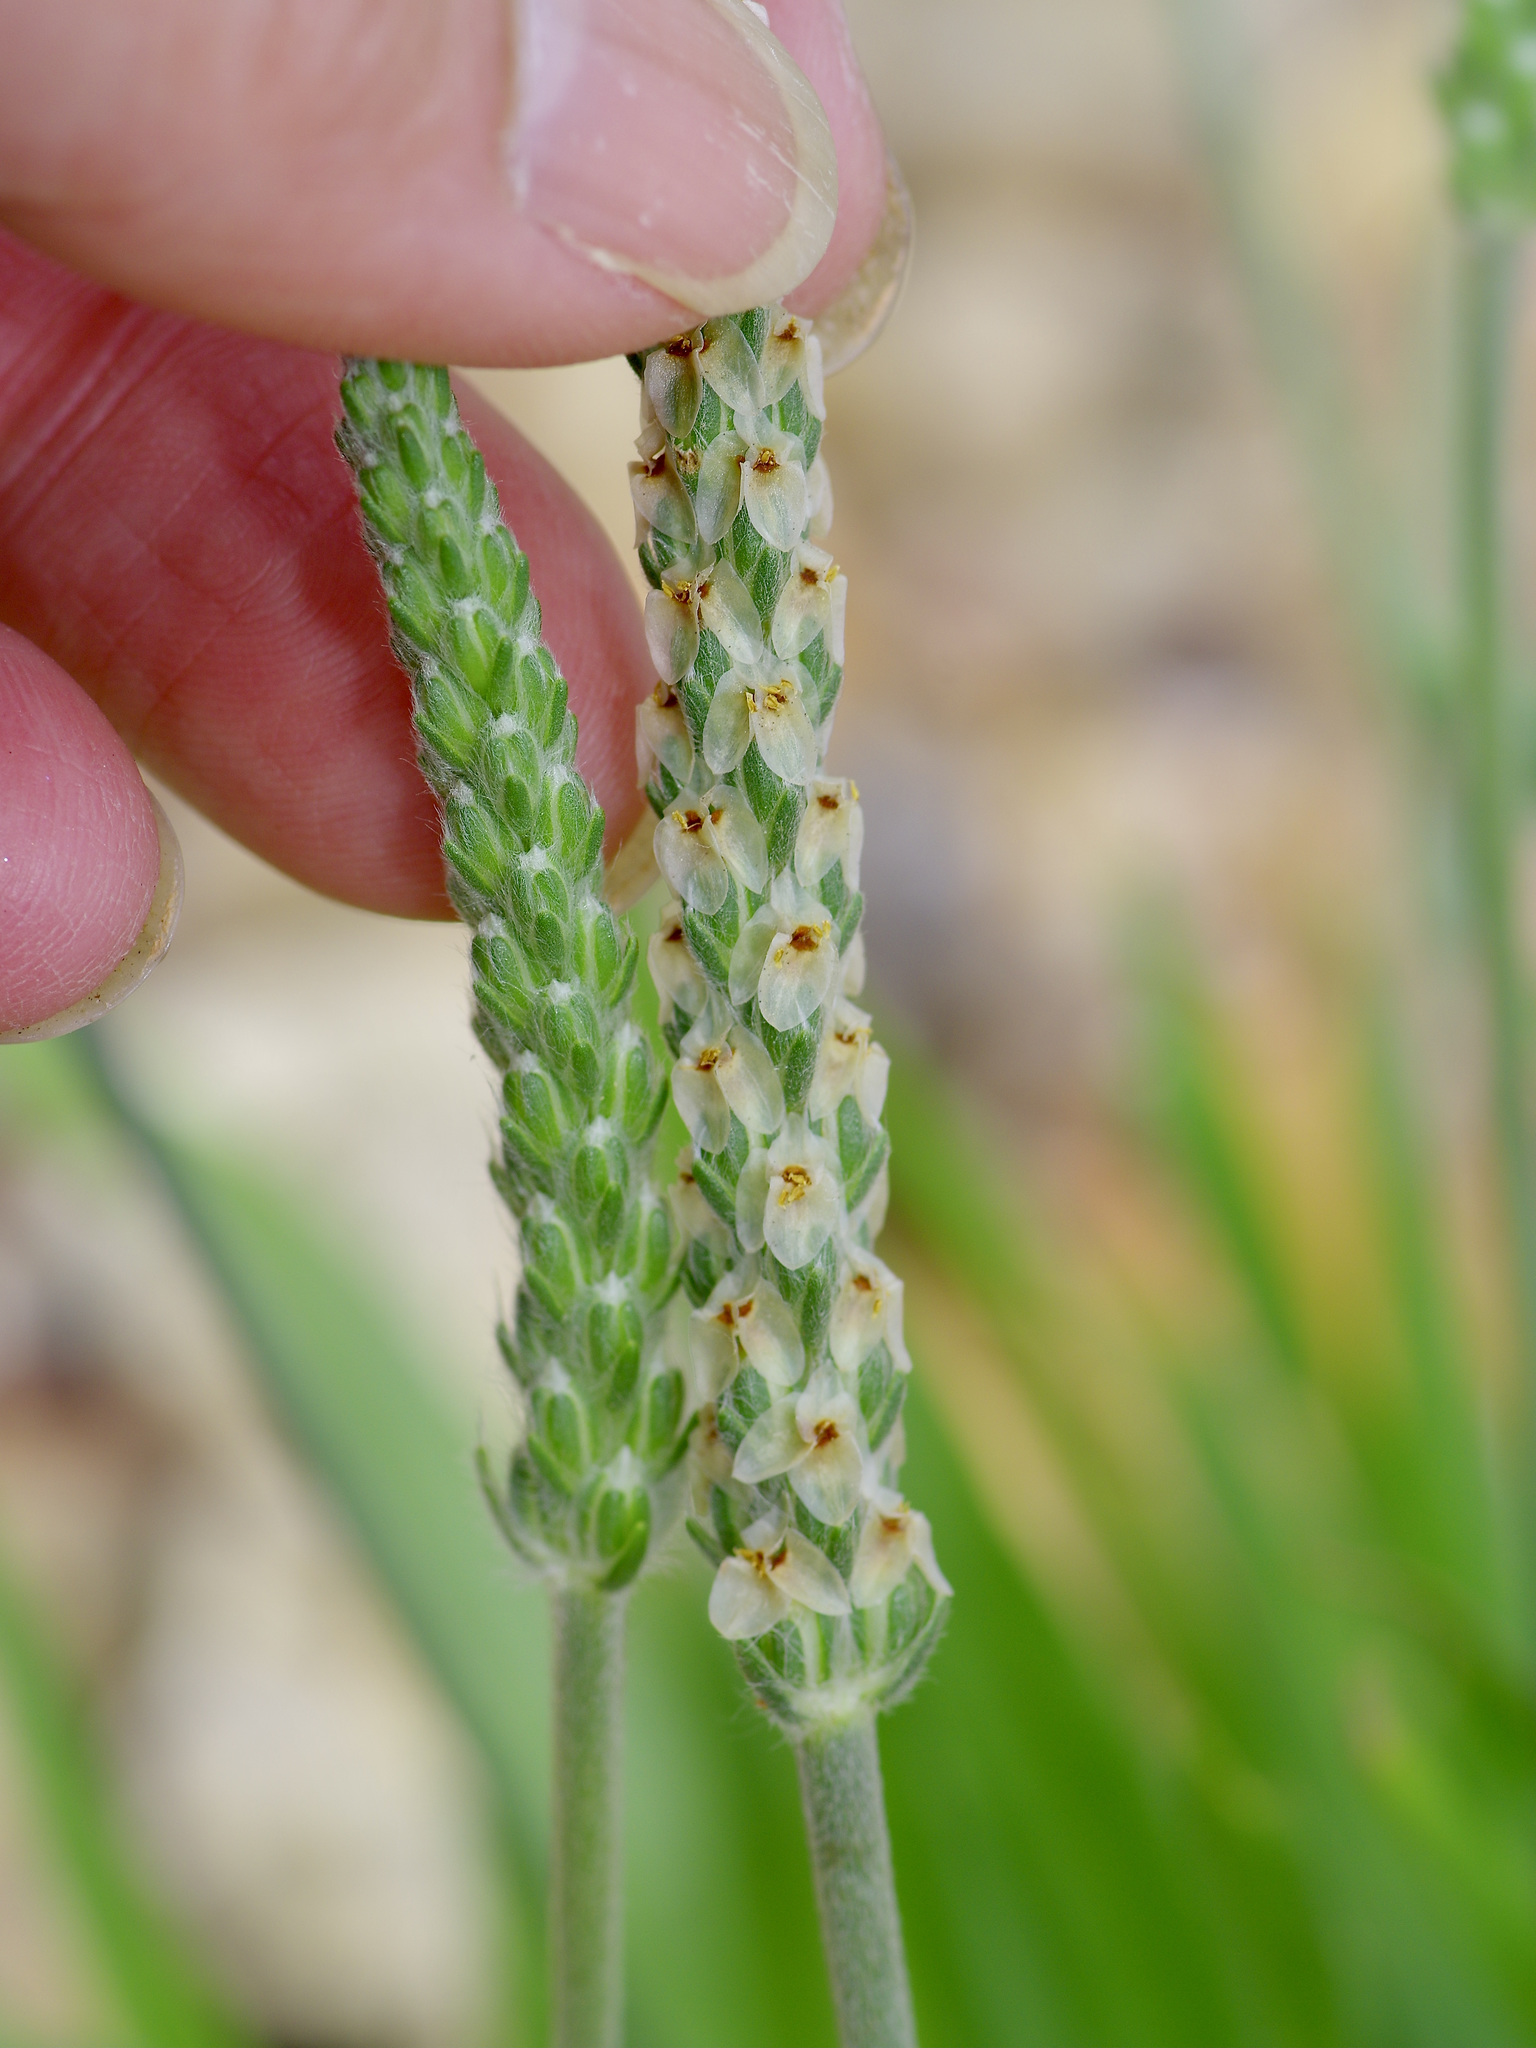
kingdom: Plantae
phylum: Tracheophyta
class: Magnoliopsida
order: Lamiales
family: Plantaginaceae
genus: Plantago
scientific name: Plantago wrightiana
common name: Wright's plantain
